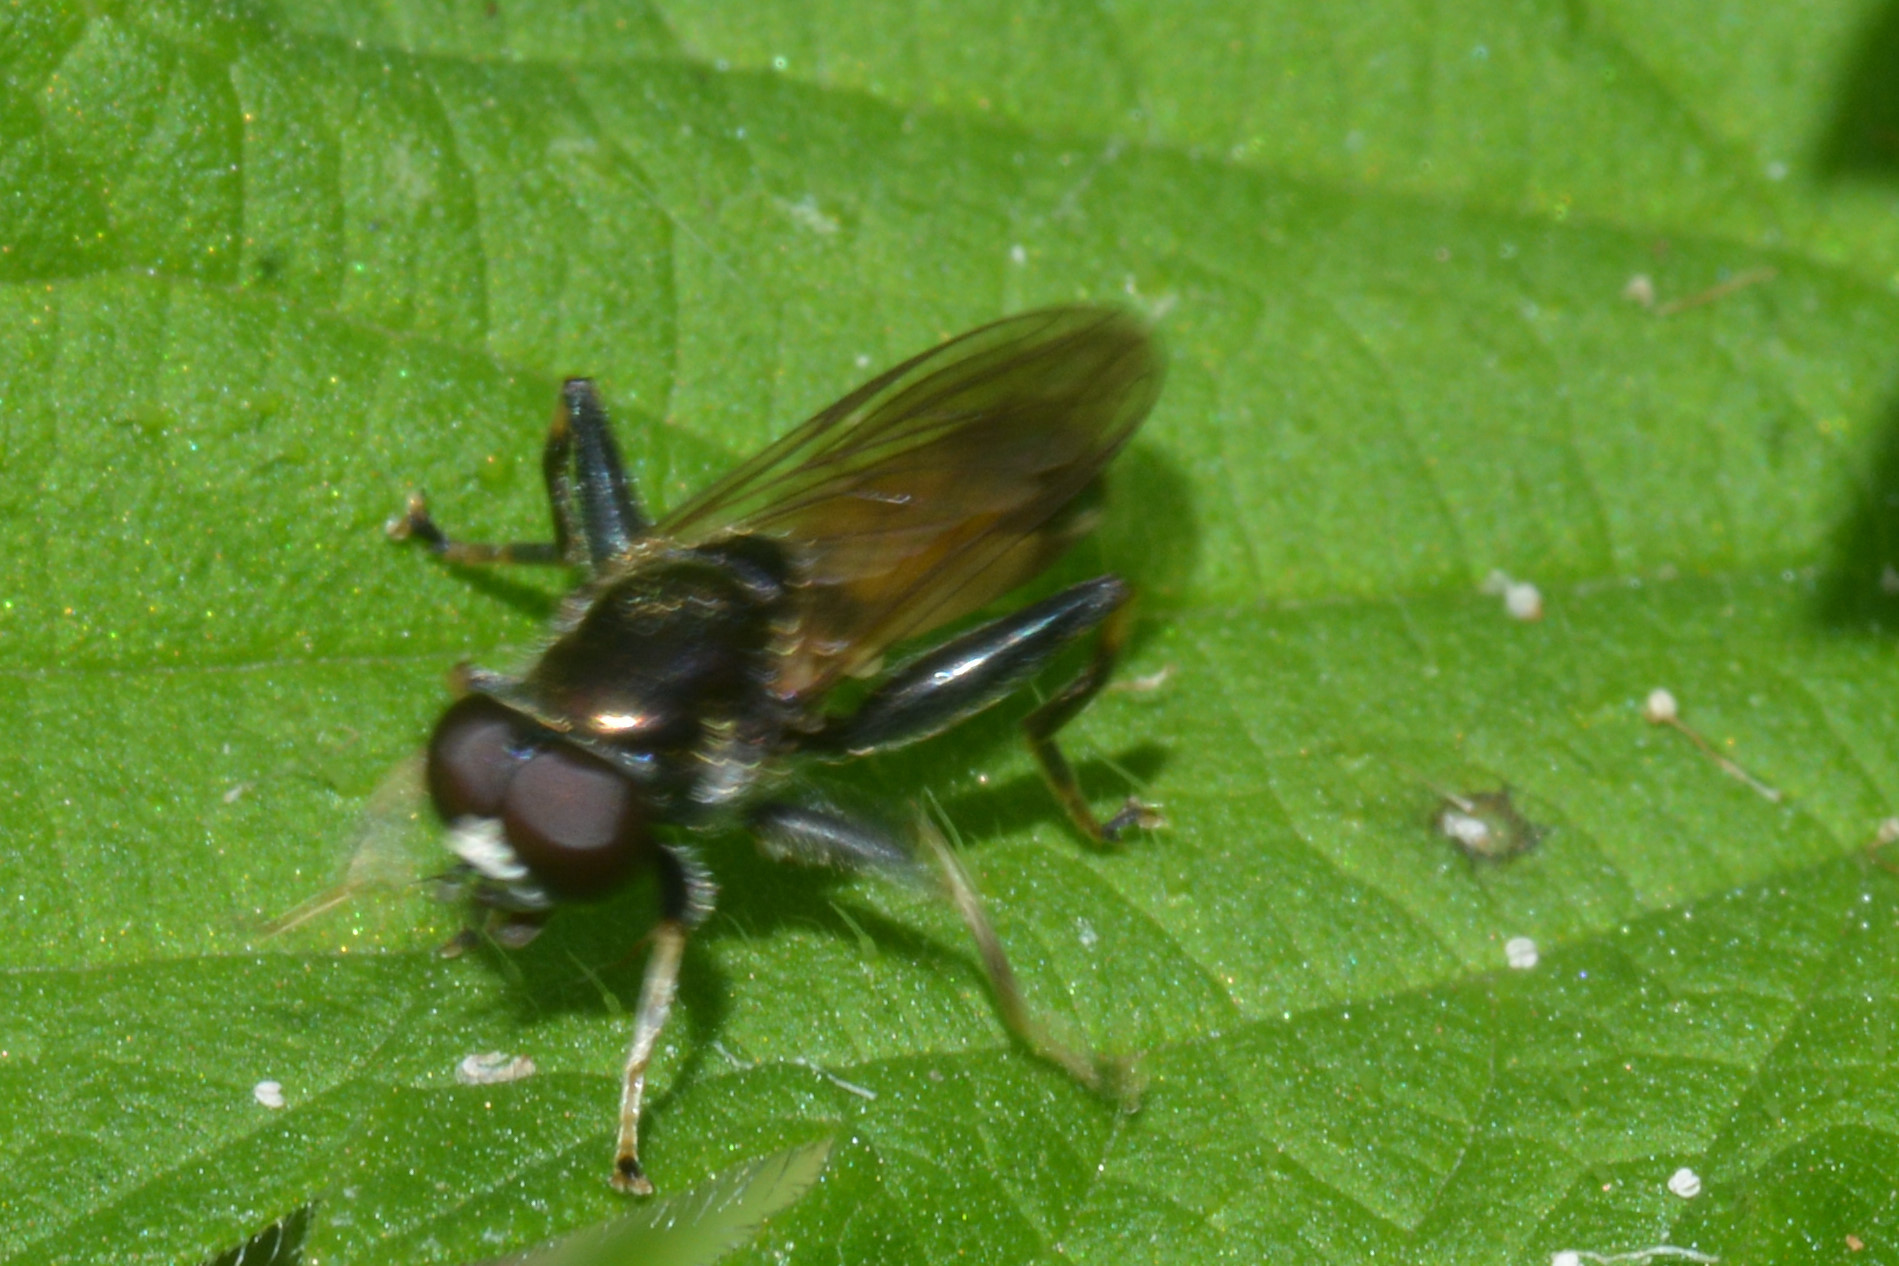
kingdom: Animalia
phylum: Arthropoda
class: Insecta
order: Diptera
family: Syrphidae
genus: Xylota
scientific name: Xylota segnis
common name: Brown-toed forest fly
